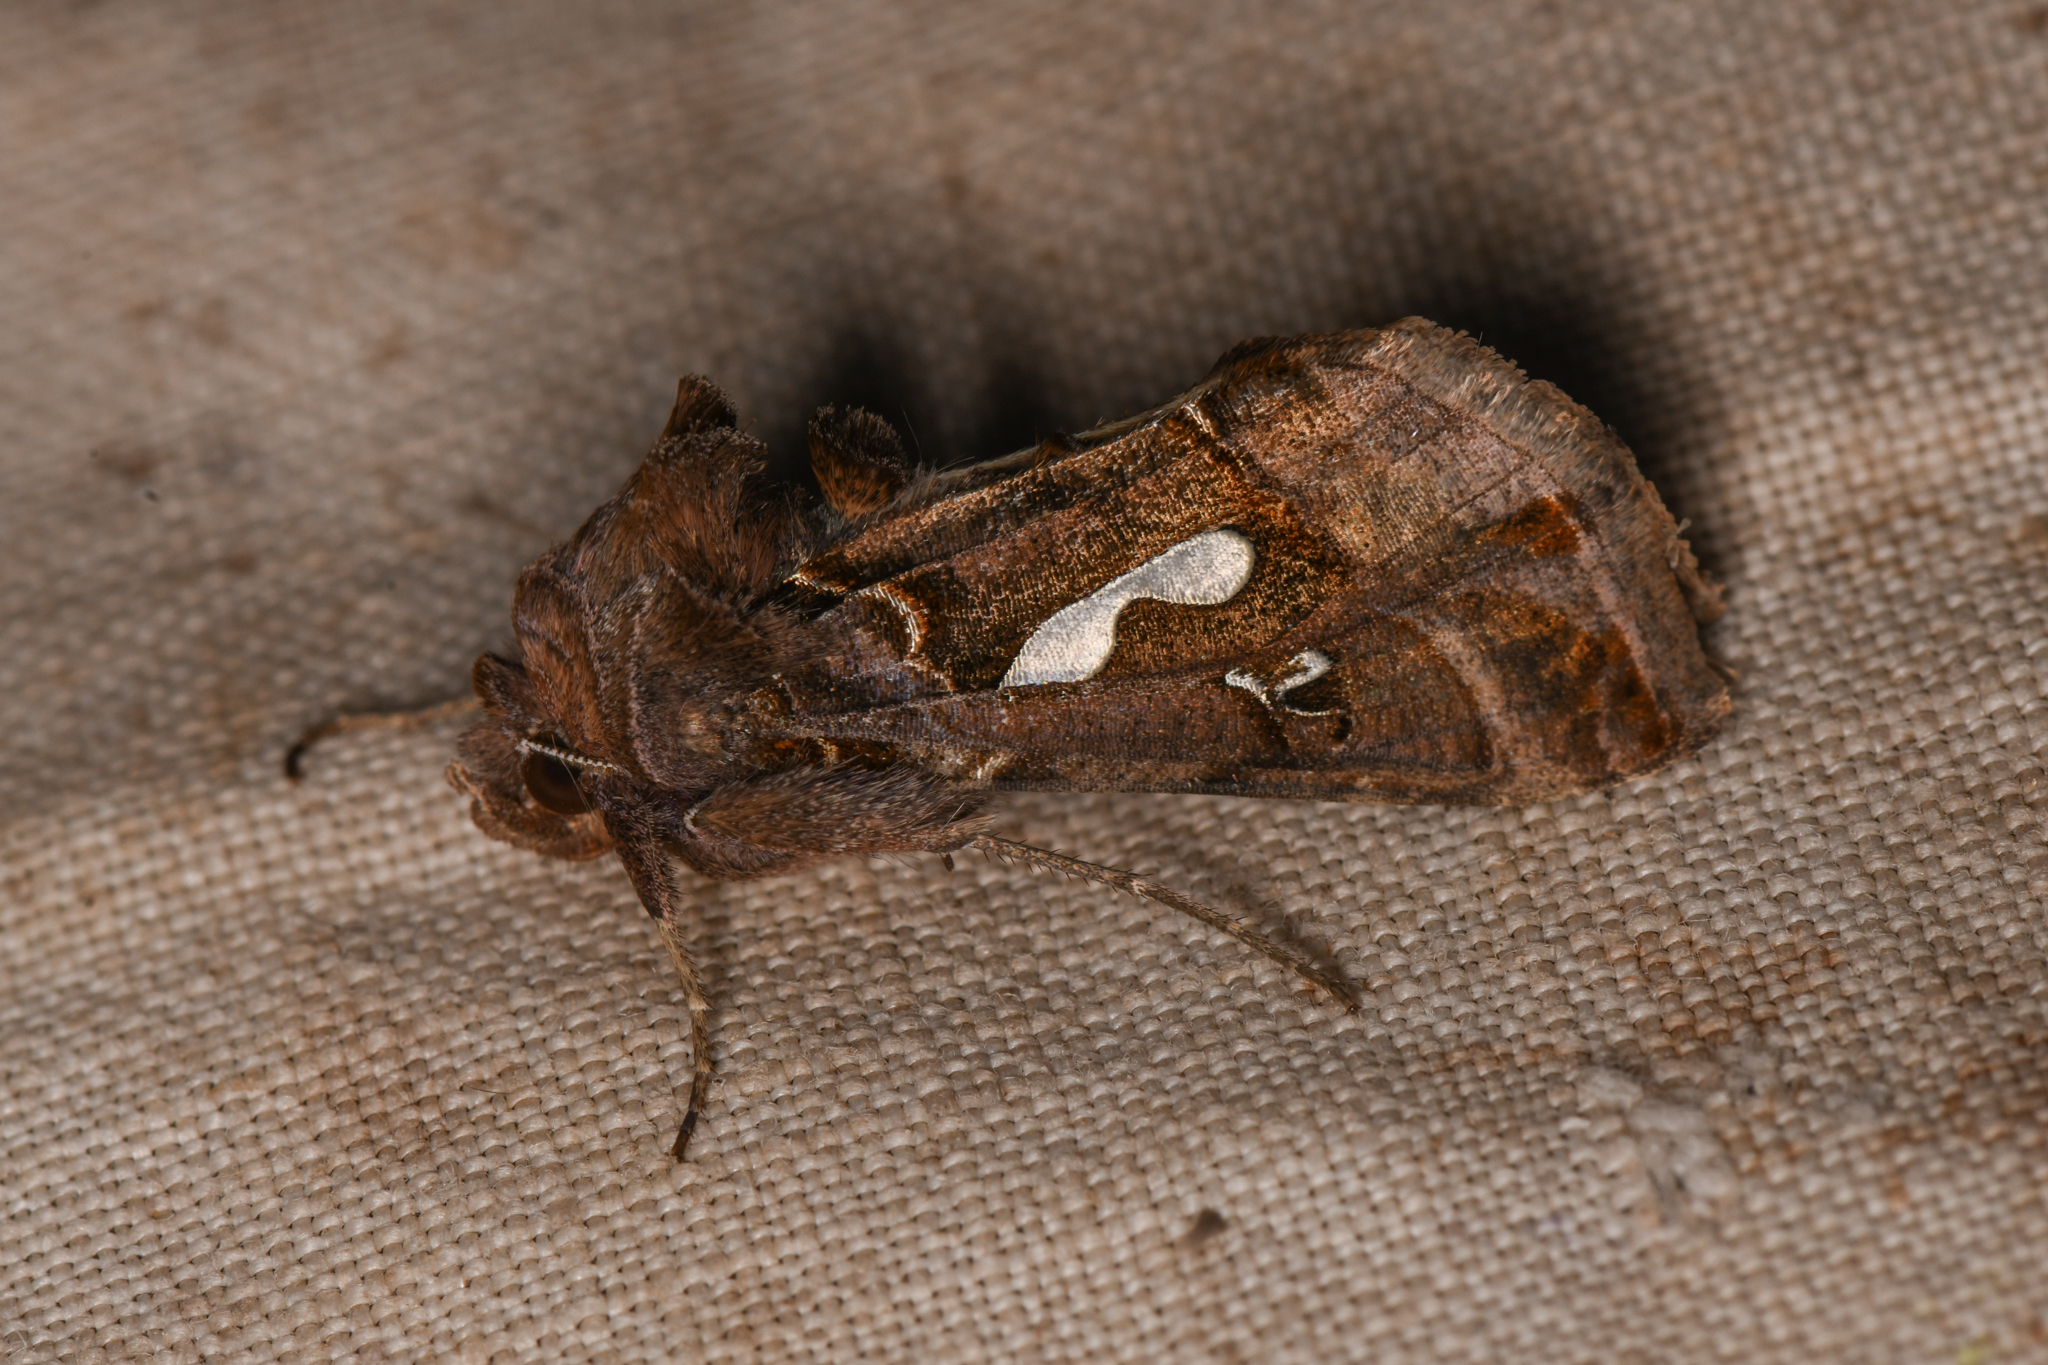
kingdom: Animalia
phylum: Arthropoda
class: Insecta
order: Lepidoptera
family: Noctuidae
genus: Megalographa
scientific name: Megalographa biloba
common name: Cutworm
